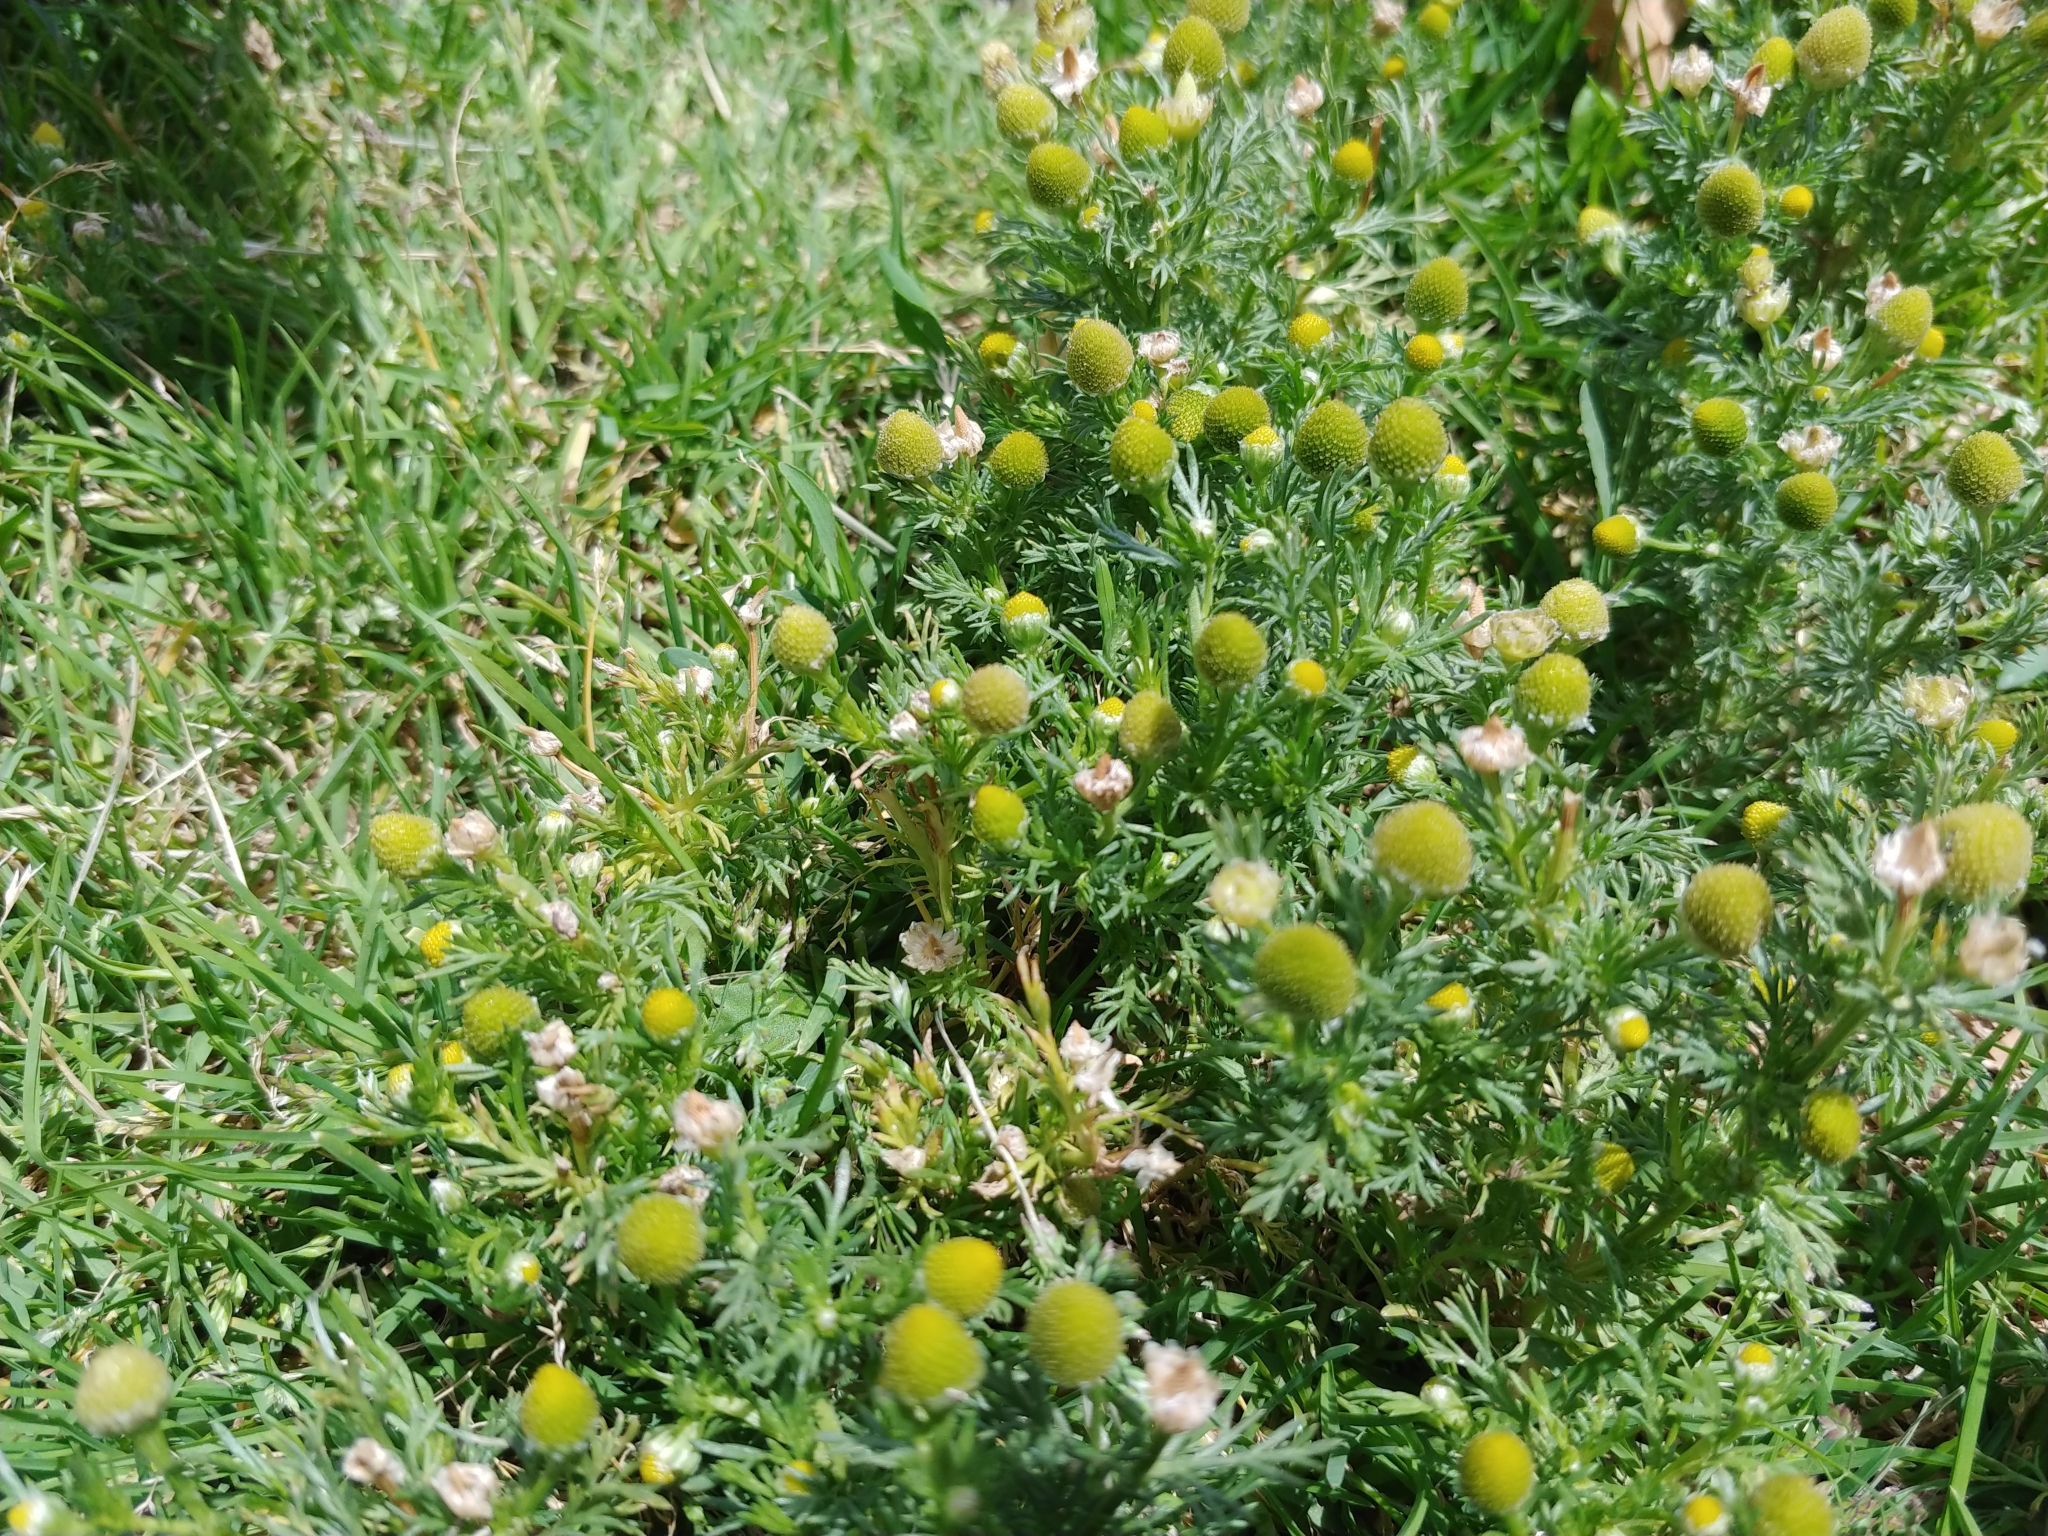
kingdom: Plantae
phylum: Tracheophyta
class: Magnoliopsida
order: Asterales
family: Asteraceae
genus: Matricaria
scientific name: Matricaria discoidea
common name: Disc mayweed
